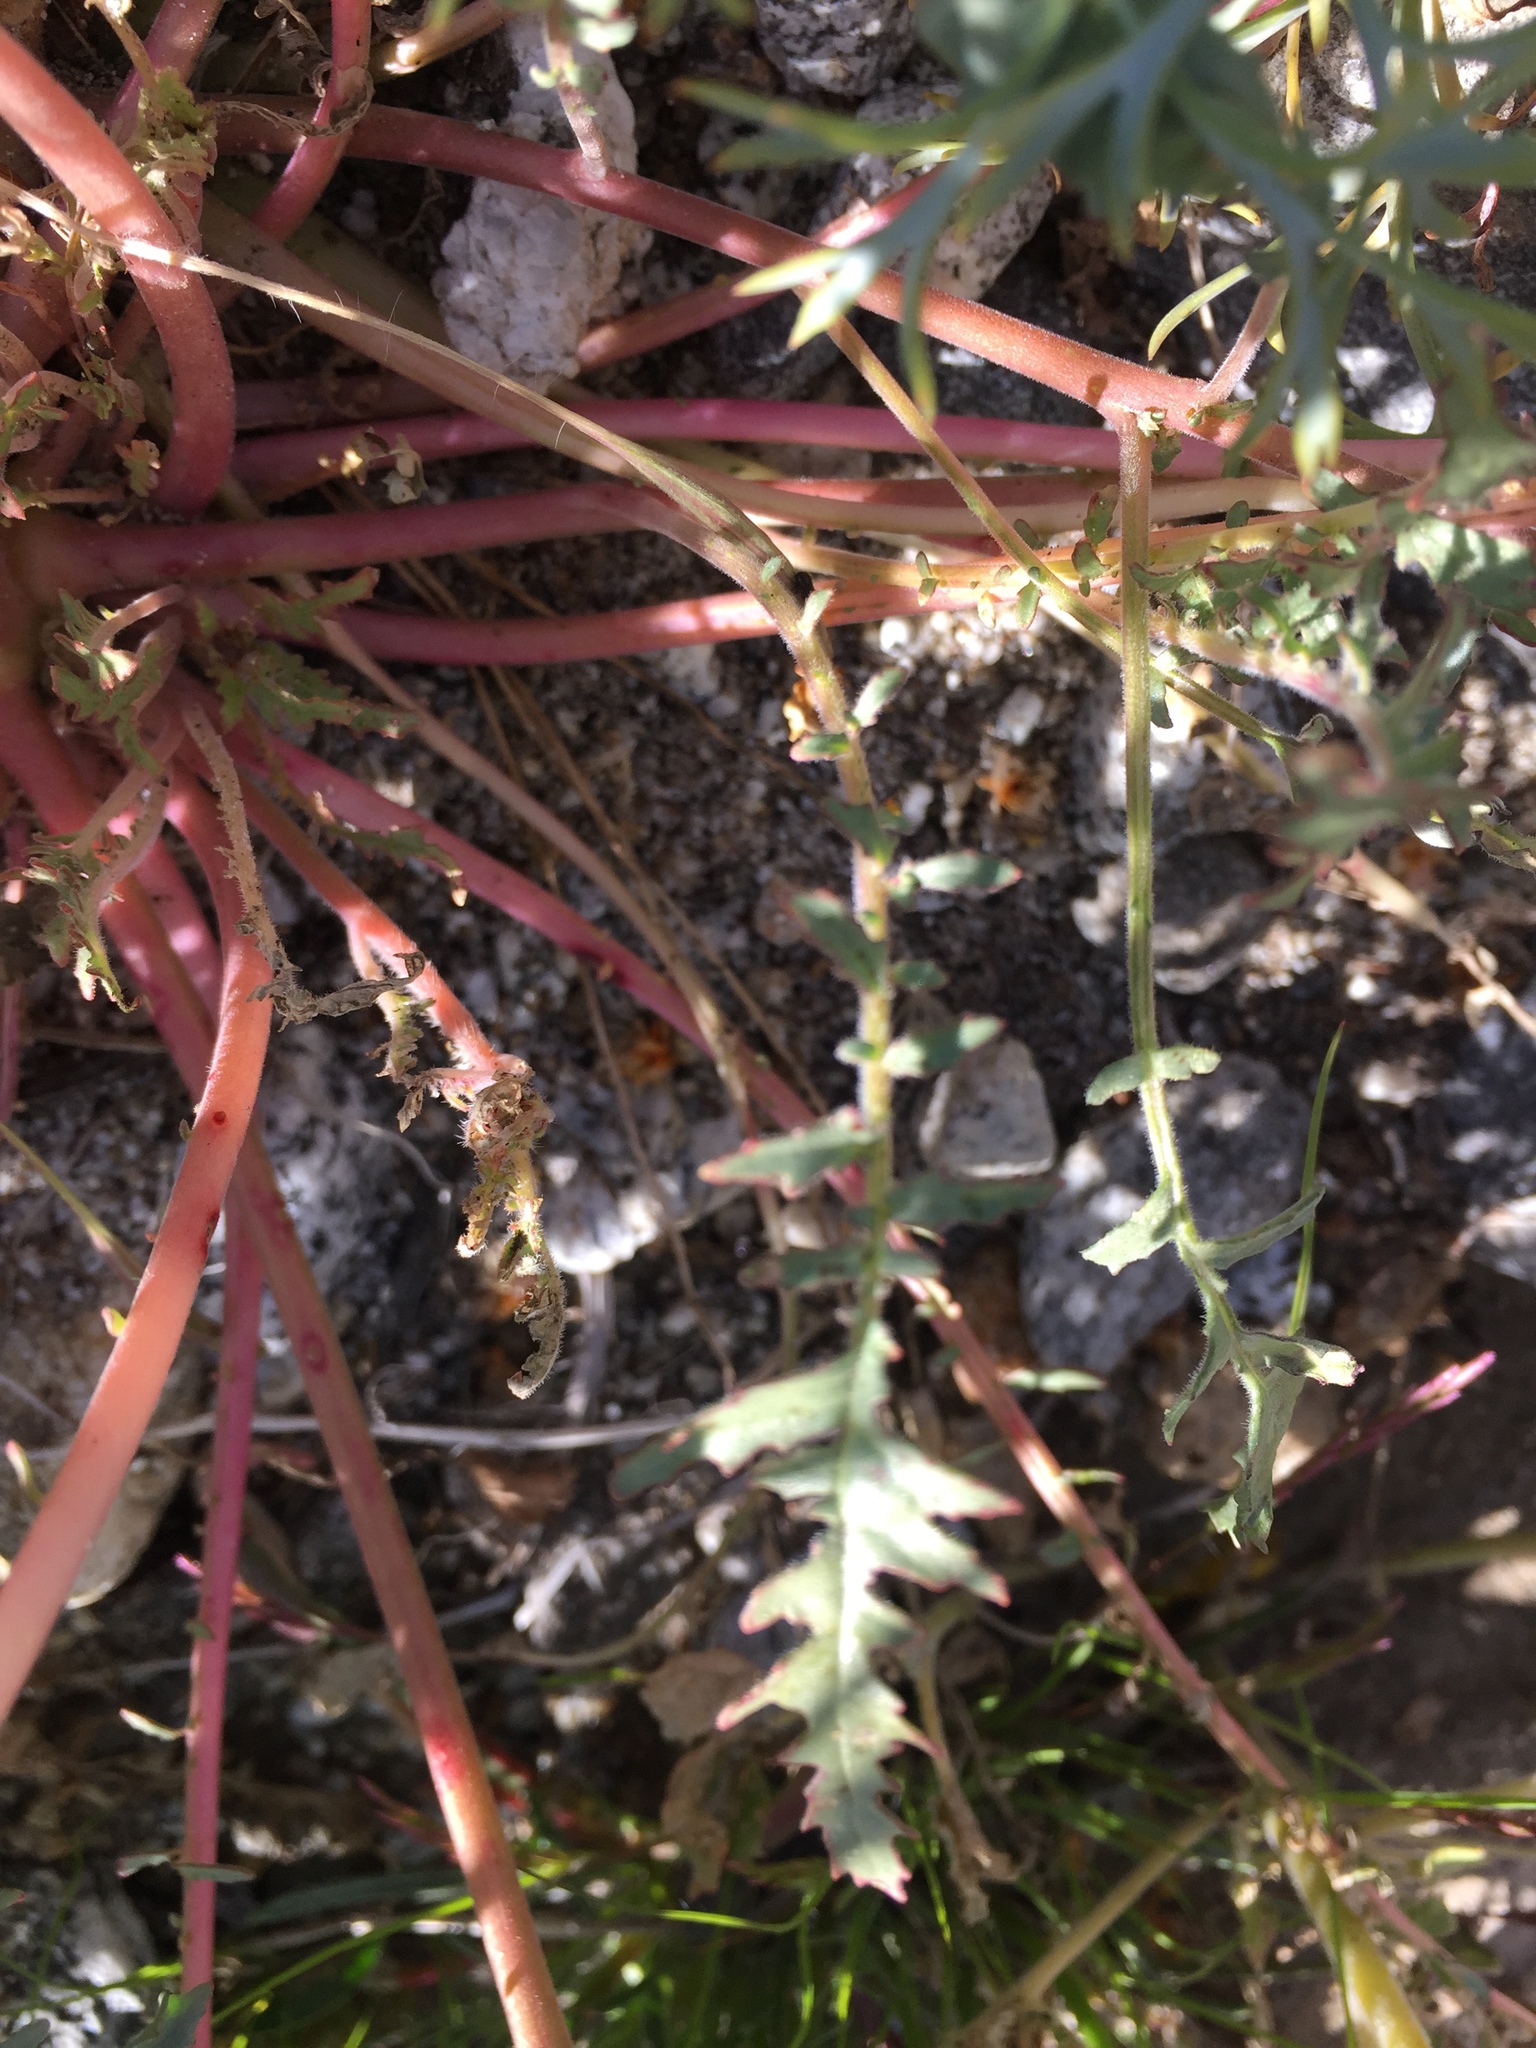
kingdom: Plantae
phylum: Tracheophyta
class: Magnoliopsida
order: Myrtales
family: Onagraceae
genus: Chylismia
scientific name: Chylismia claviformis
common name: Browneyes
